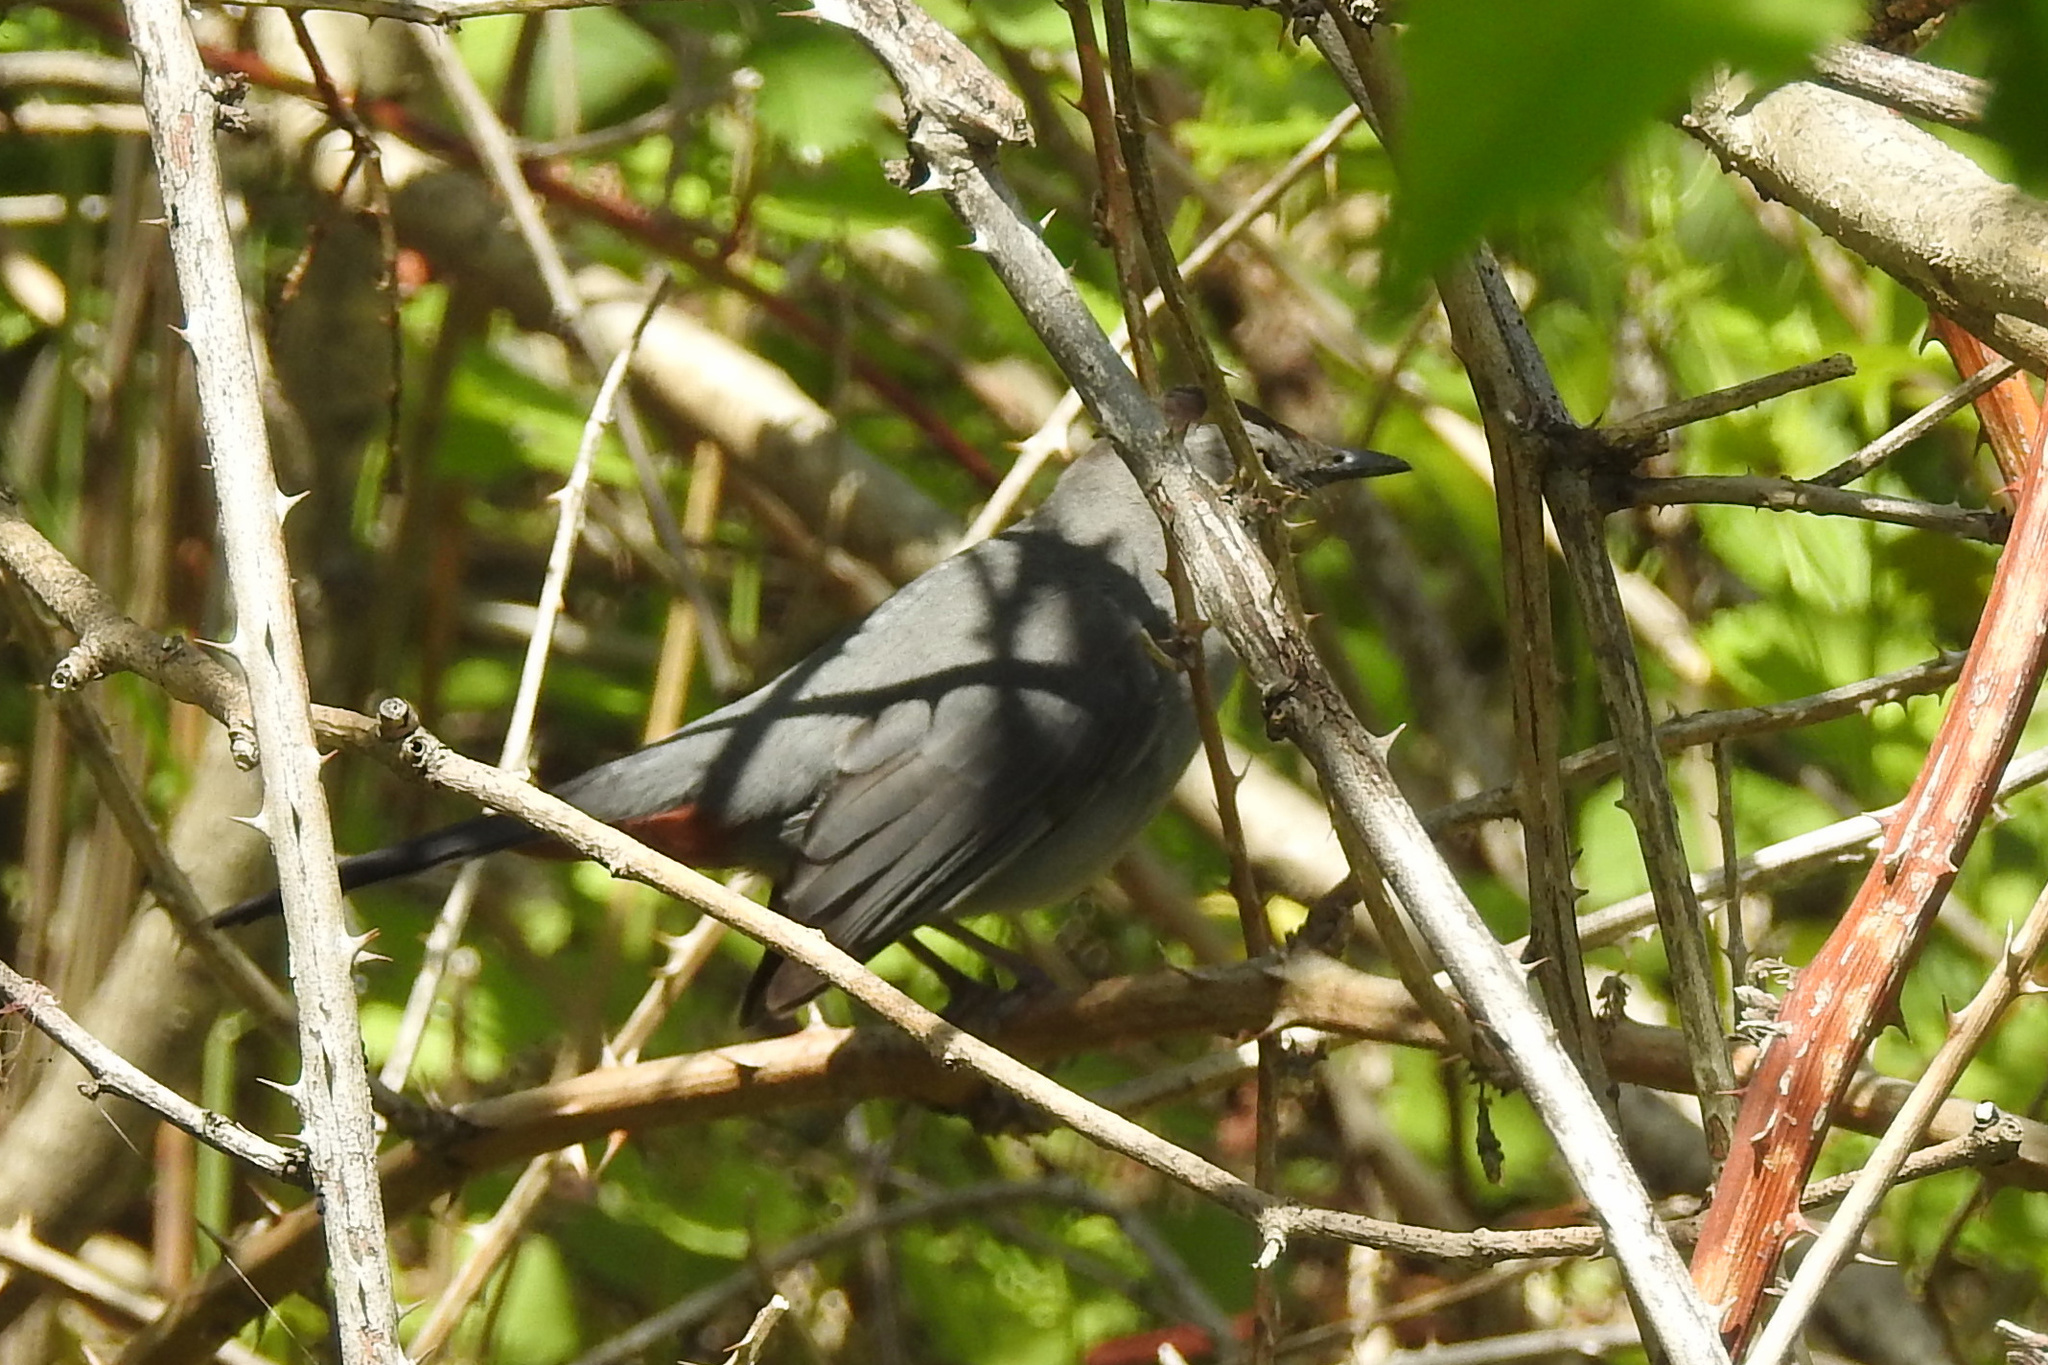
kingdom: Animalia
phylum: Chordata
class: Aves
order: Passeriformes
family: Mimidae
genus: Dumetella
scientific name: Dumetella carolinensis
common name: Gray catbird
